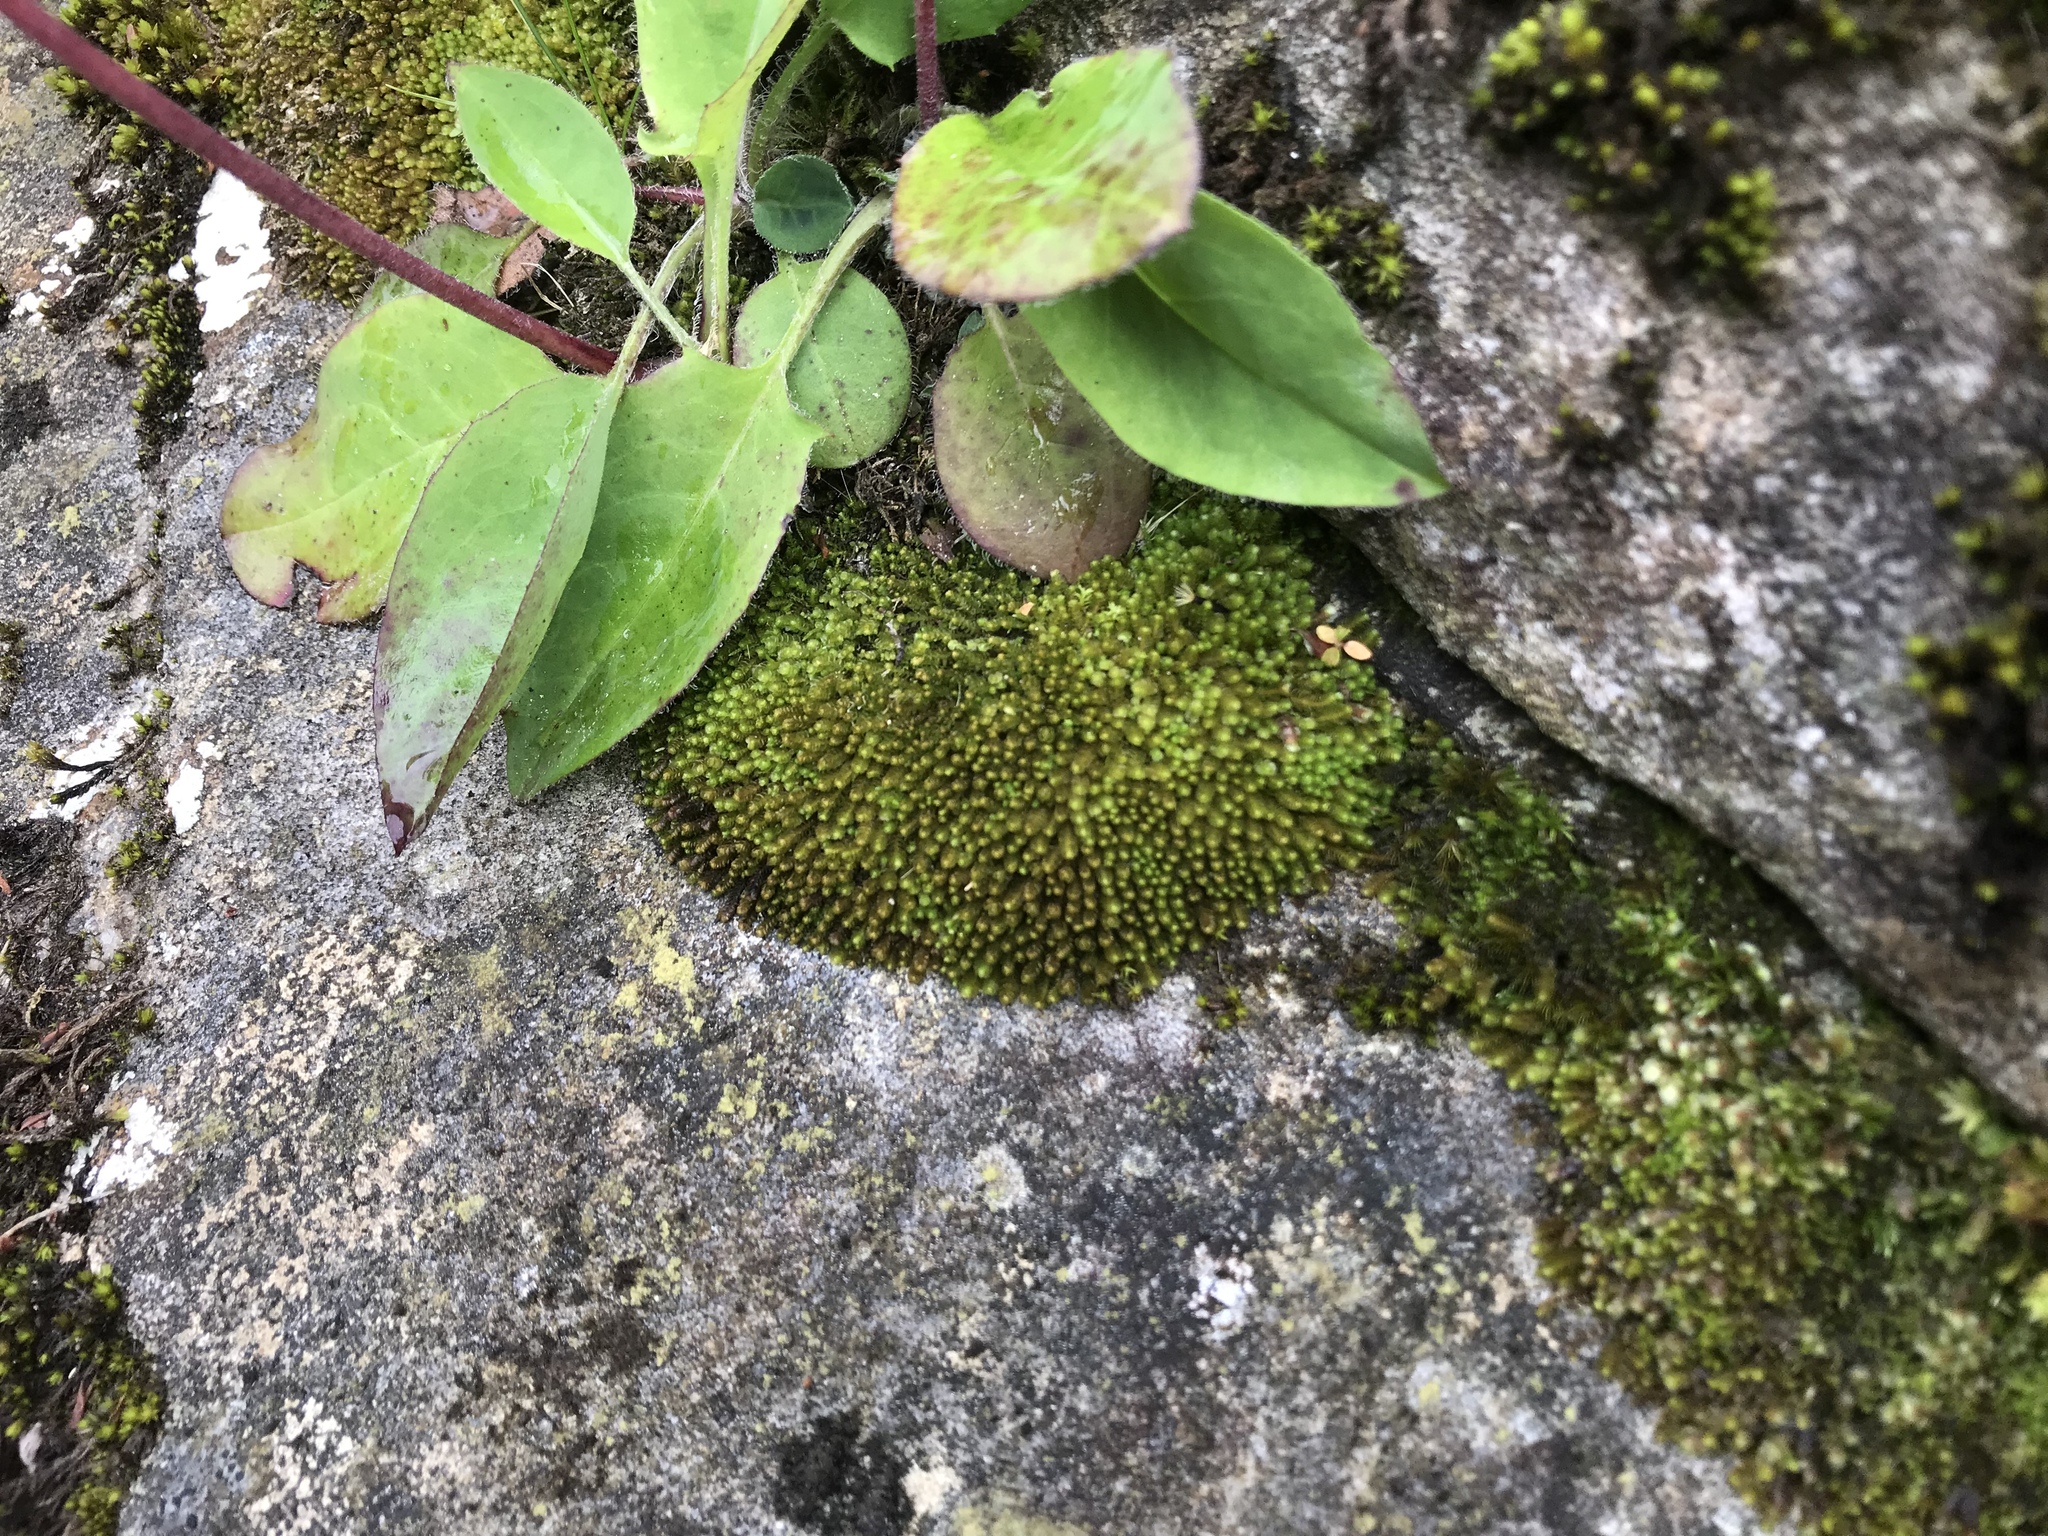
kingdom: Plantae
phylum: Marchantiophyta
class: Jungermanniopsida
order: Jungermanniales
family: Gymnomitriaceae
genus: Marsupella
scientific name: Marsupella emarginata
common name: Notched rustwort
